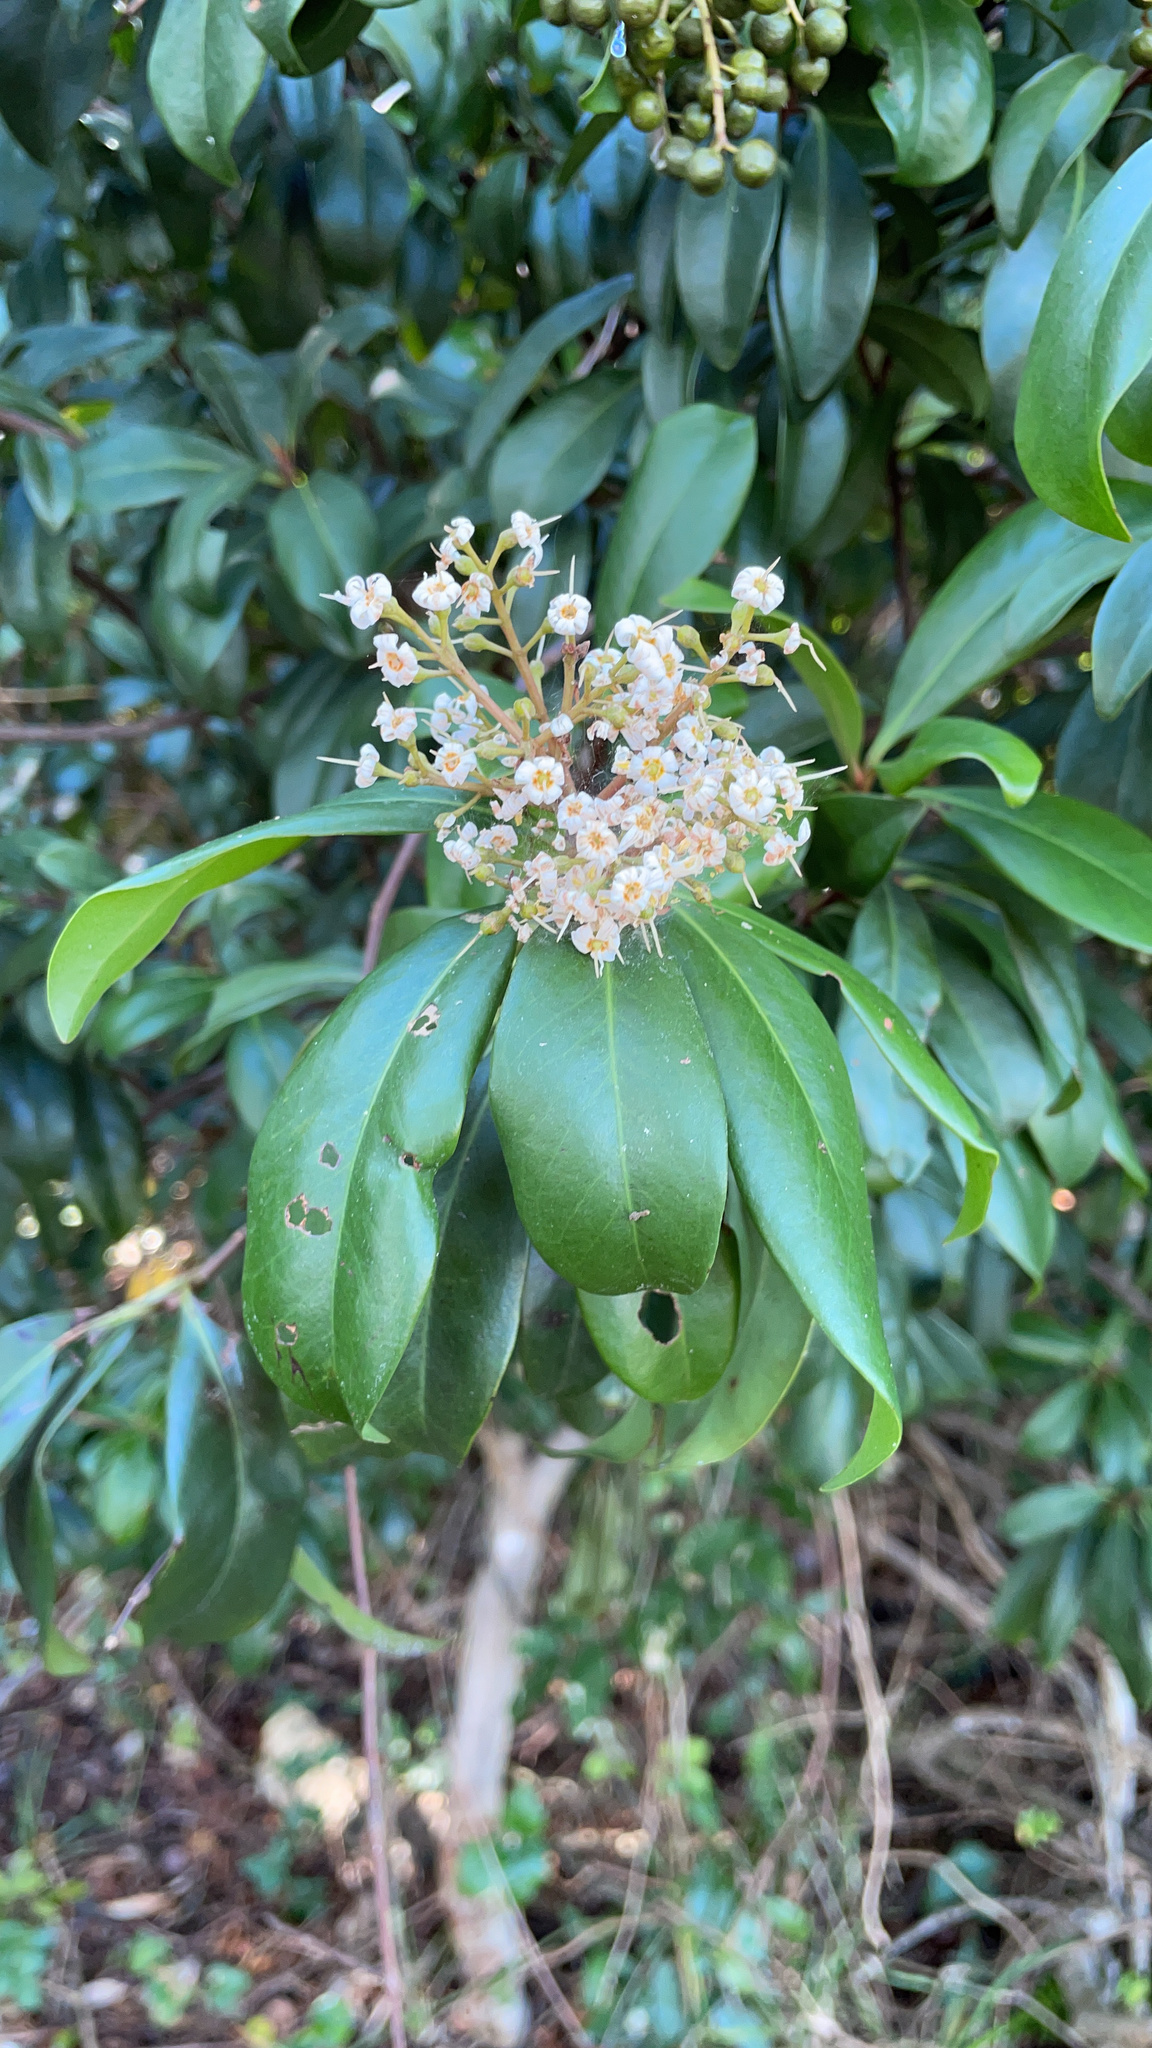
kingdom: Plantae
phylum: Tracheophyta
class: Magnoliopsida
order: Ericales
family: Primulaceae
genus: Ardisia
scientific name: Ardisia escallonioides
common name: Island marlberry
